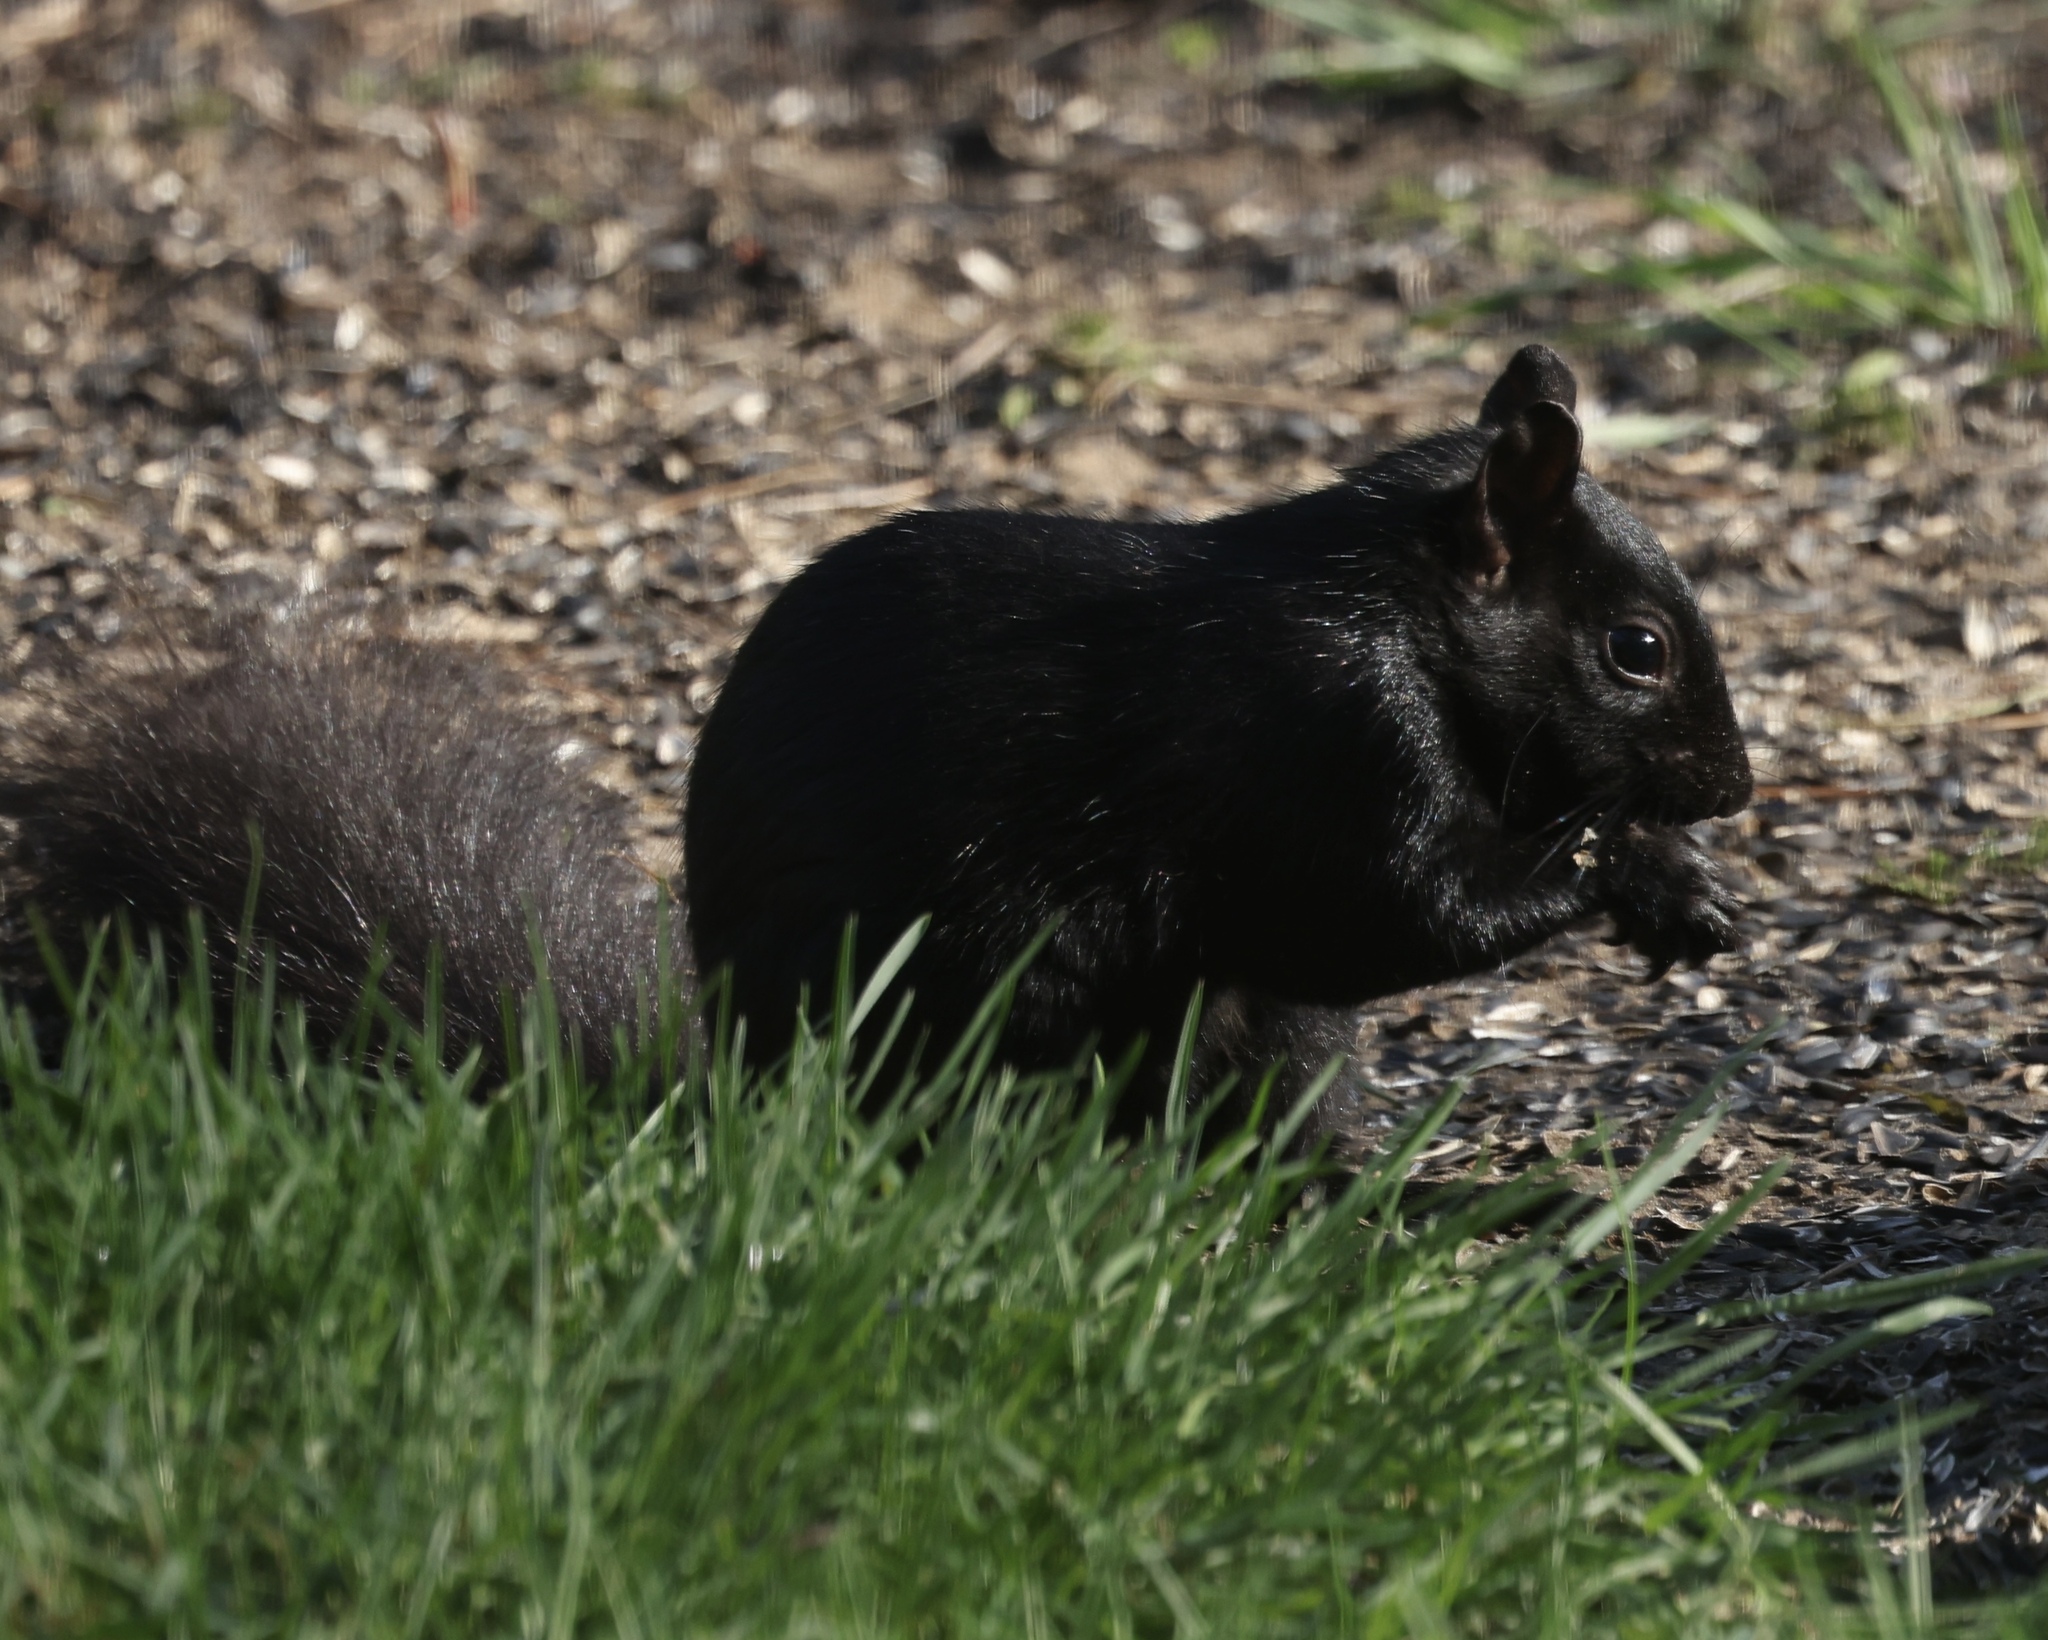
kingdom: Animalia
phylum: Chordata
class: Mammalia
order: Rodentia
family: Sciuridae
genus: Sciurus
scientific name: Sciurus carolinensis
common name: Eastern gray squirrel
